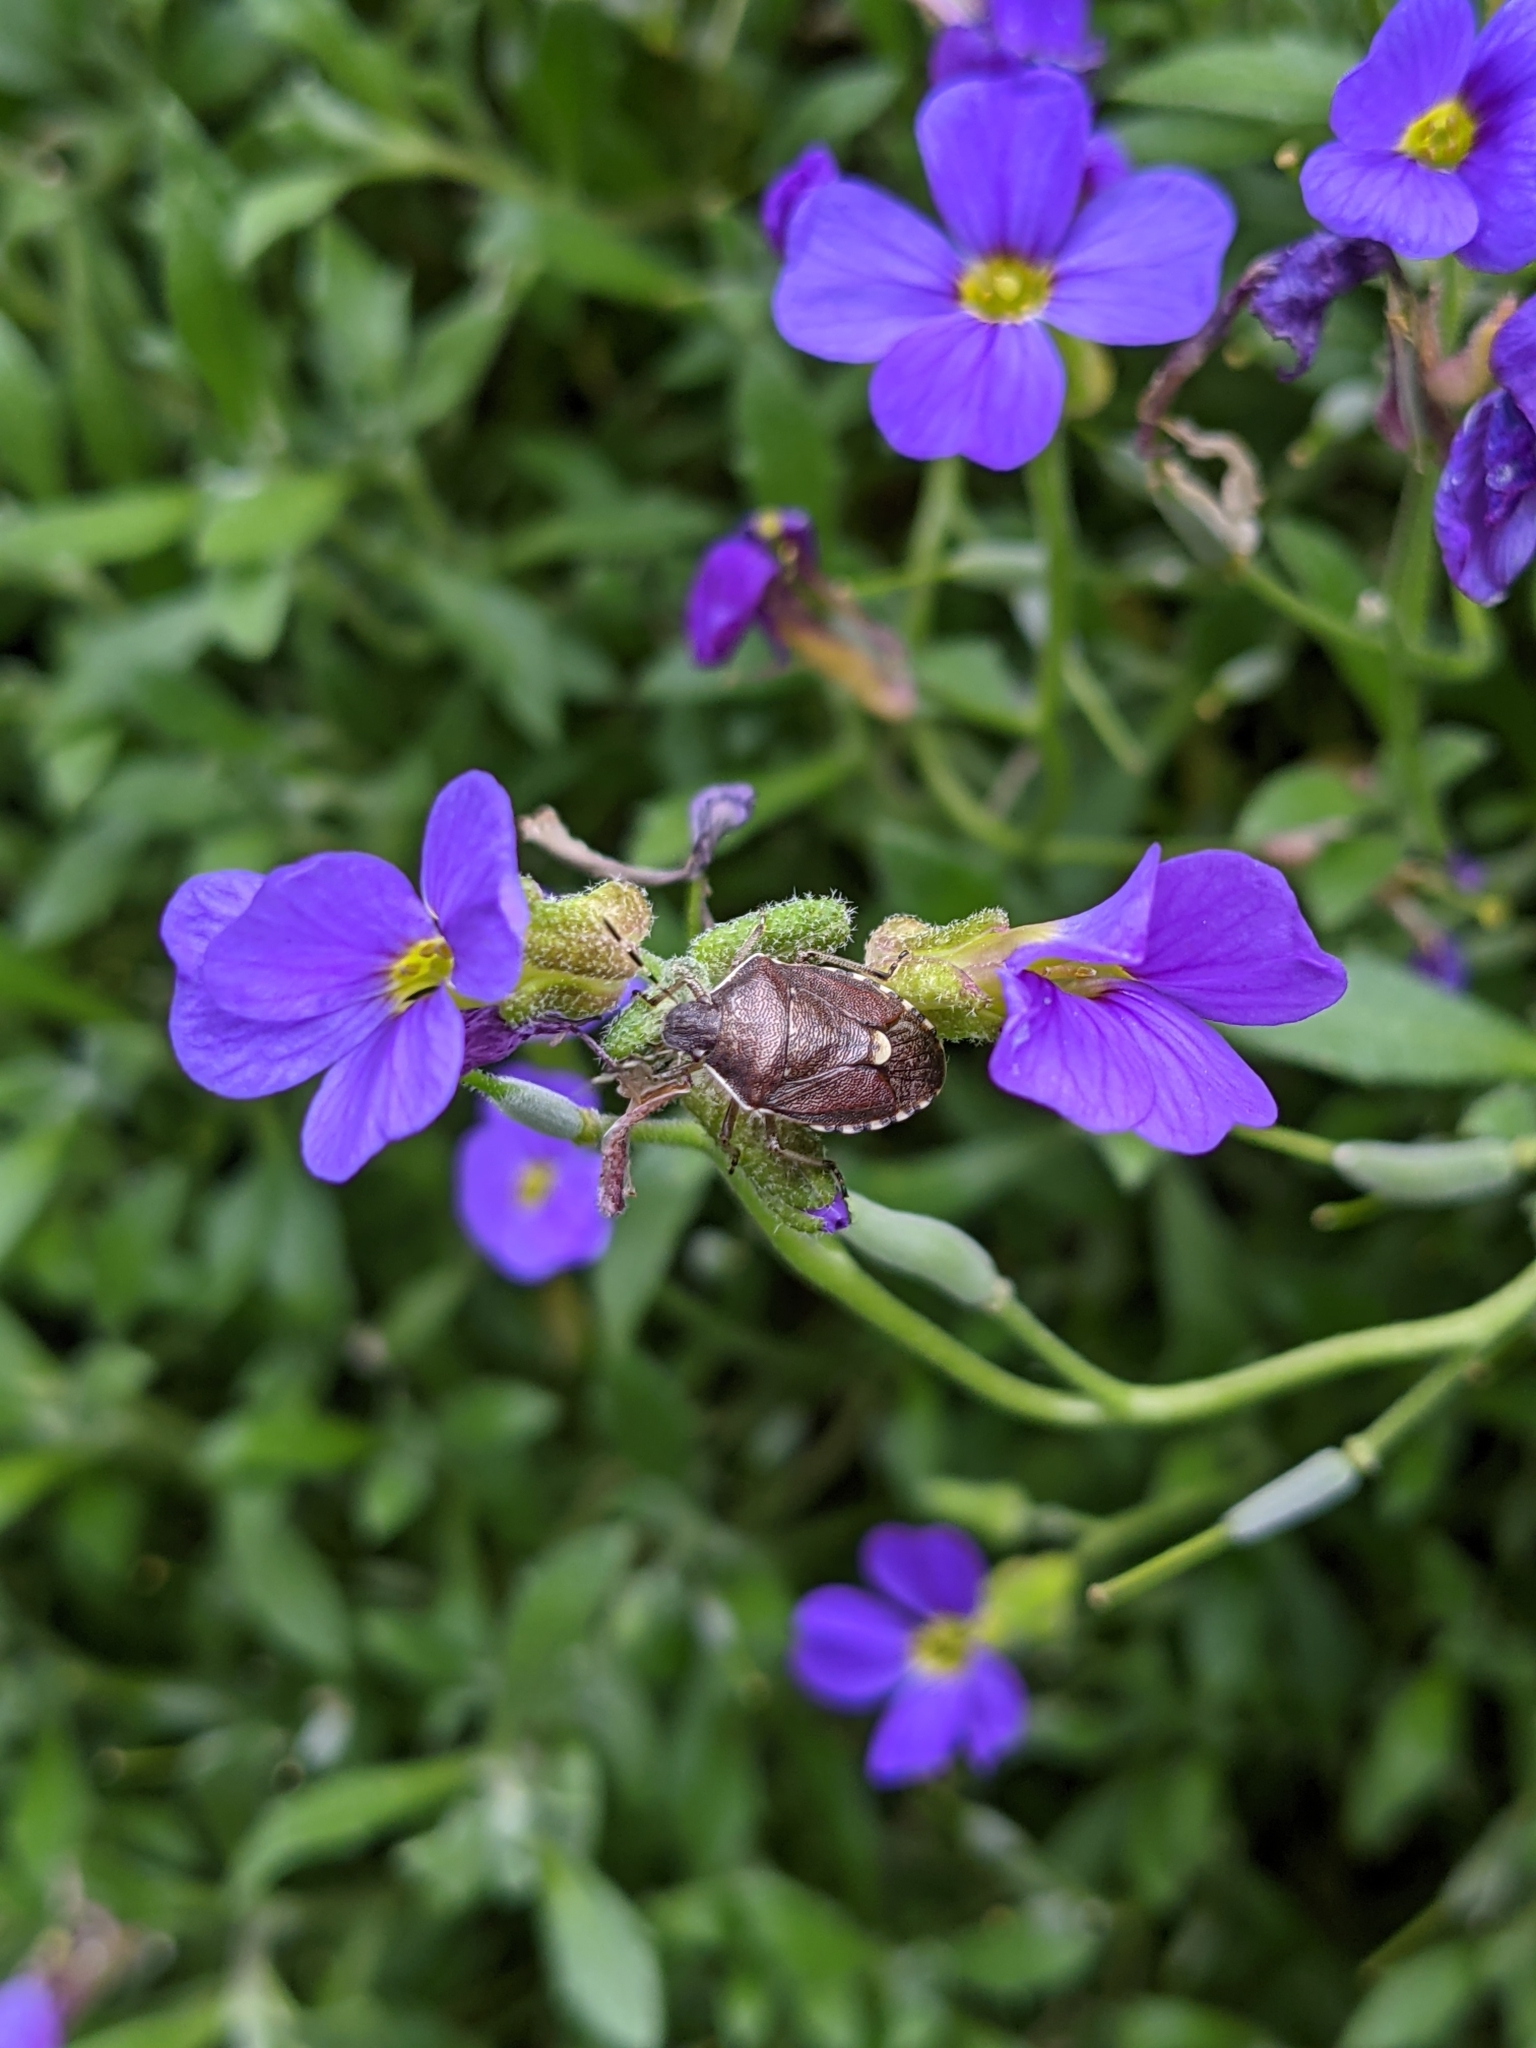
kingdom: Animalia
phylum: Arthropoda
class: Insecta
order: Hemiptera
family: Pentatomidae
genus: Holcostethus
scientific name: Holcostethus sphacelatus
